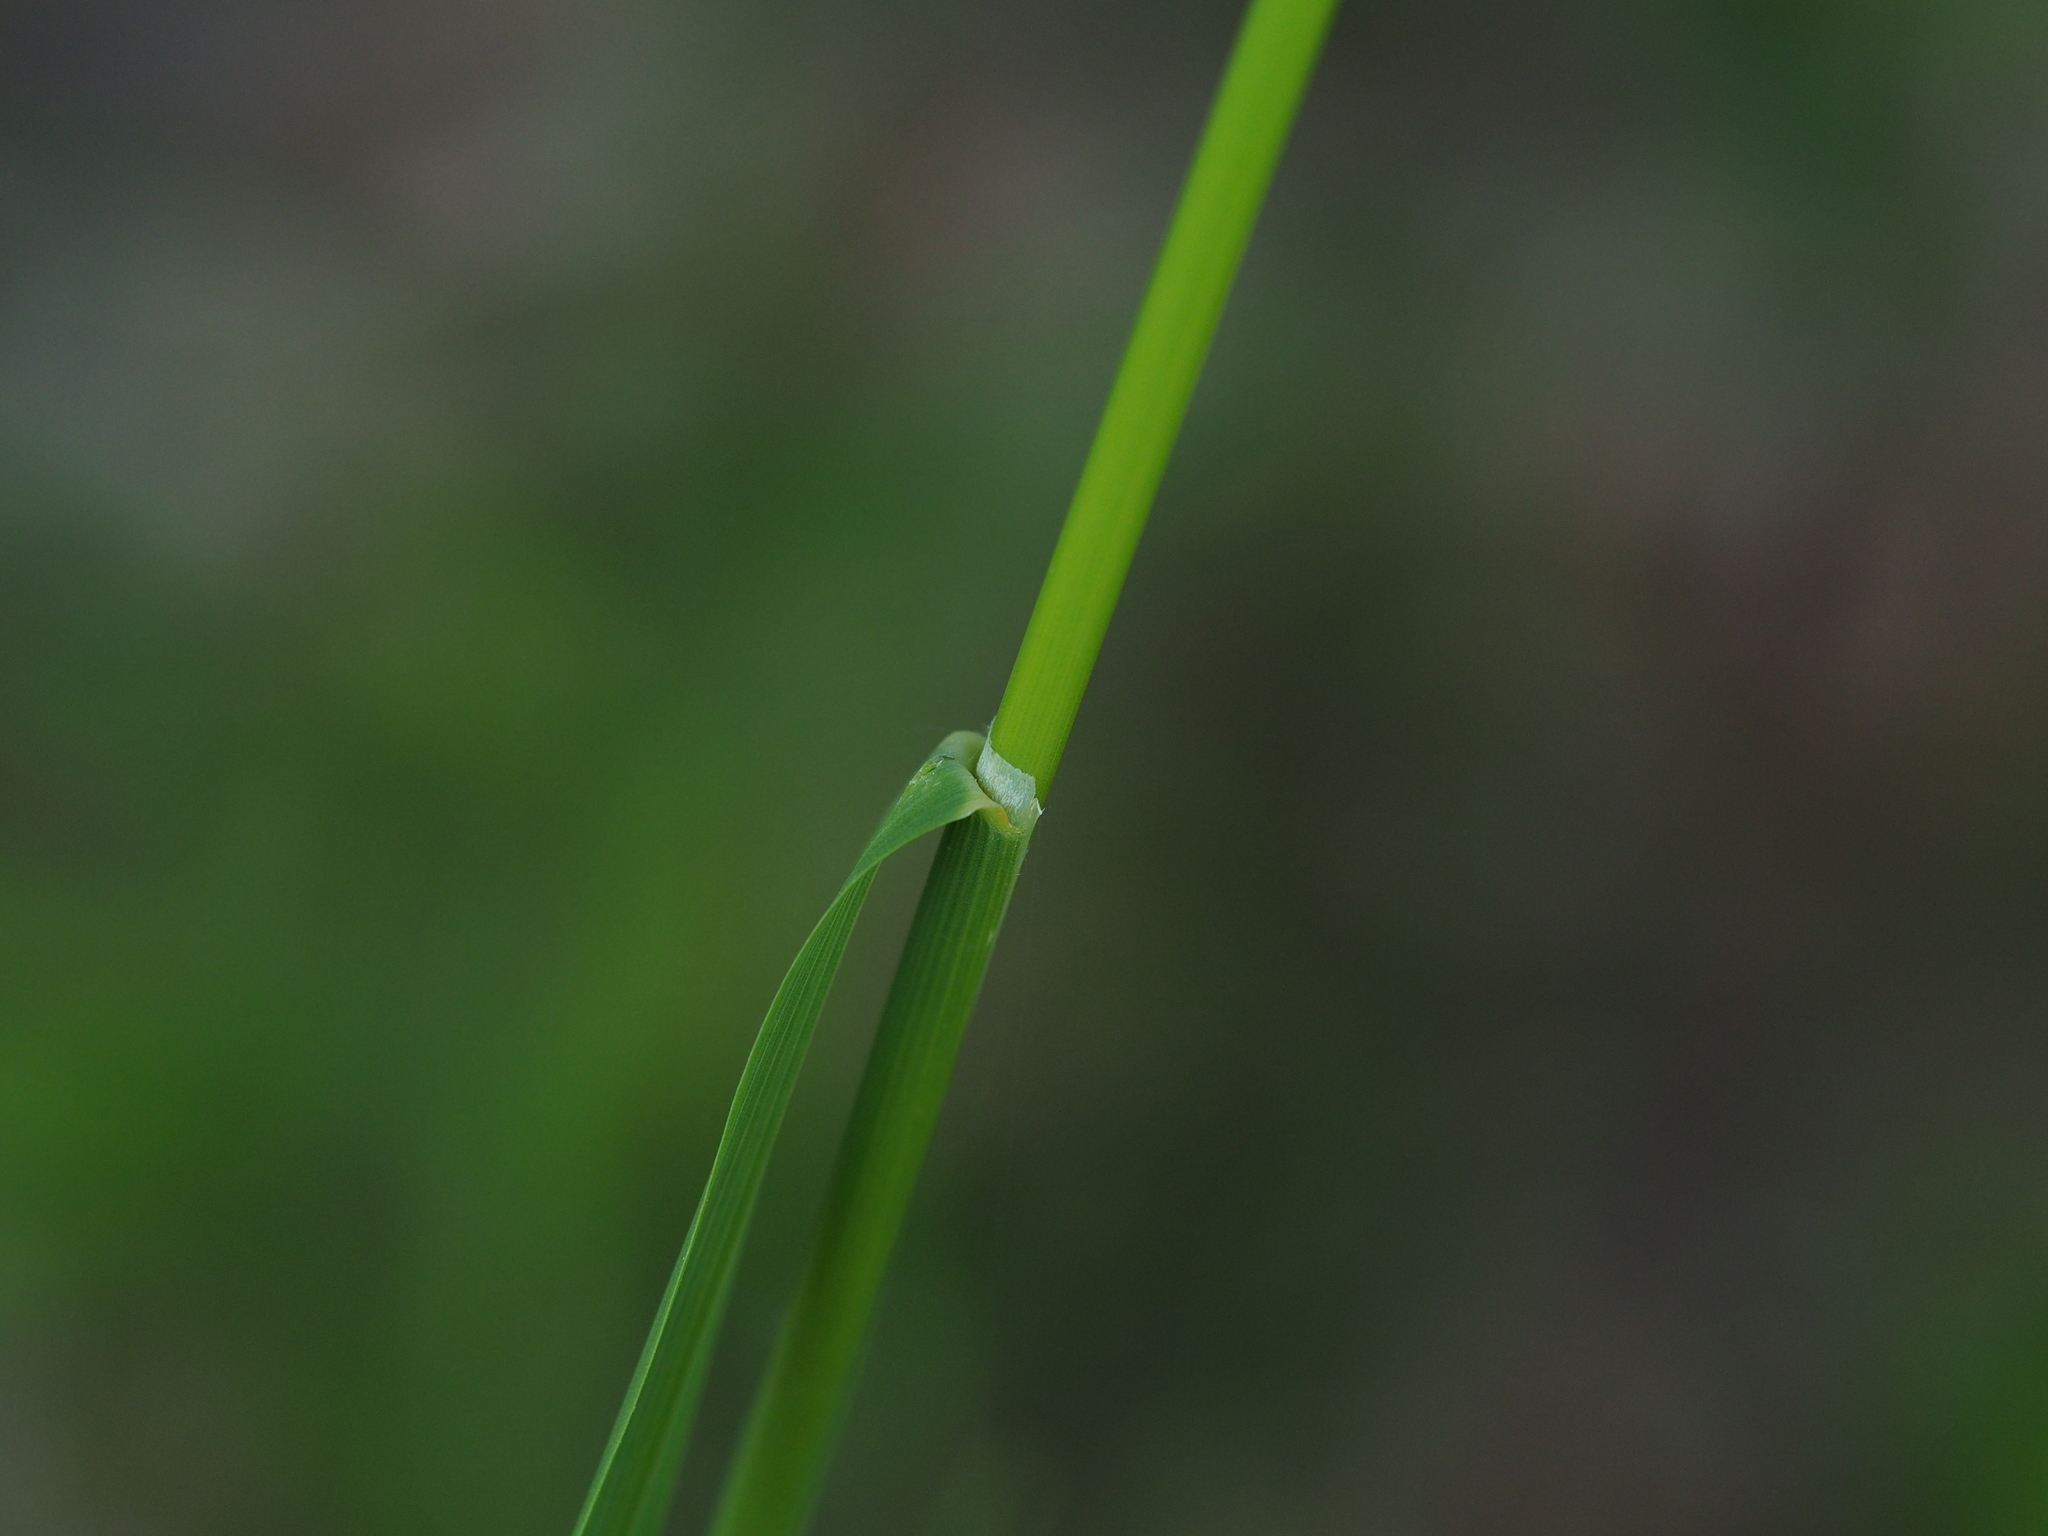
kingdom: Plantae
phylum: Tracheophyta
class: Liliopsida
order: Poales
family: Poaceae
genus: Arrhenatherum
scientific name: Arrhenatherum elatius
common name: Tall oatgrass
